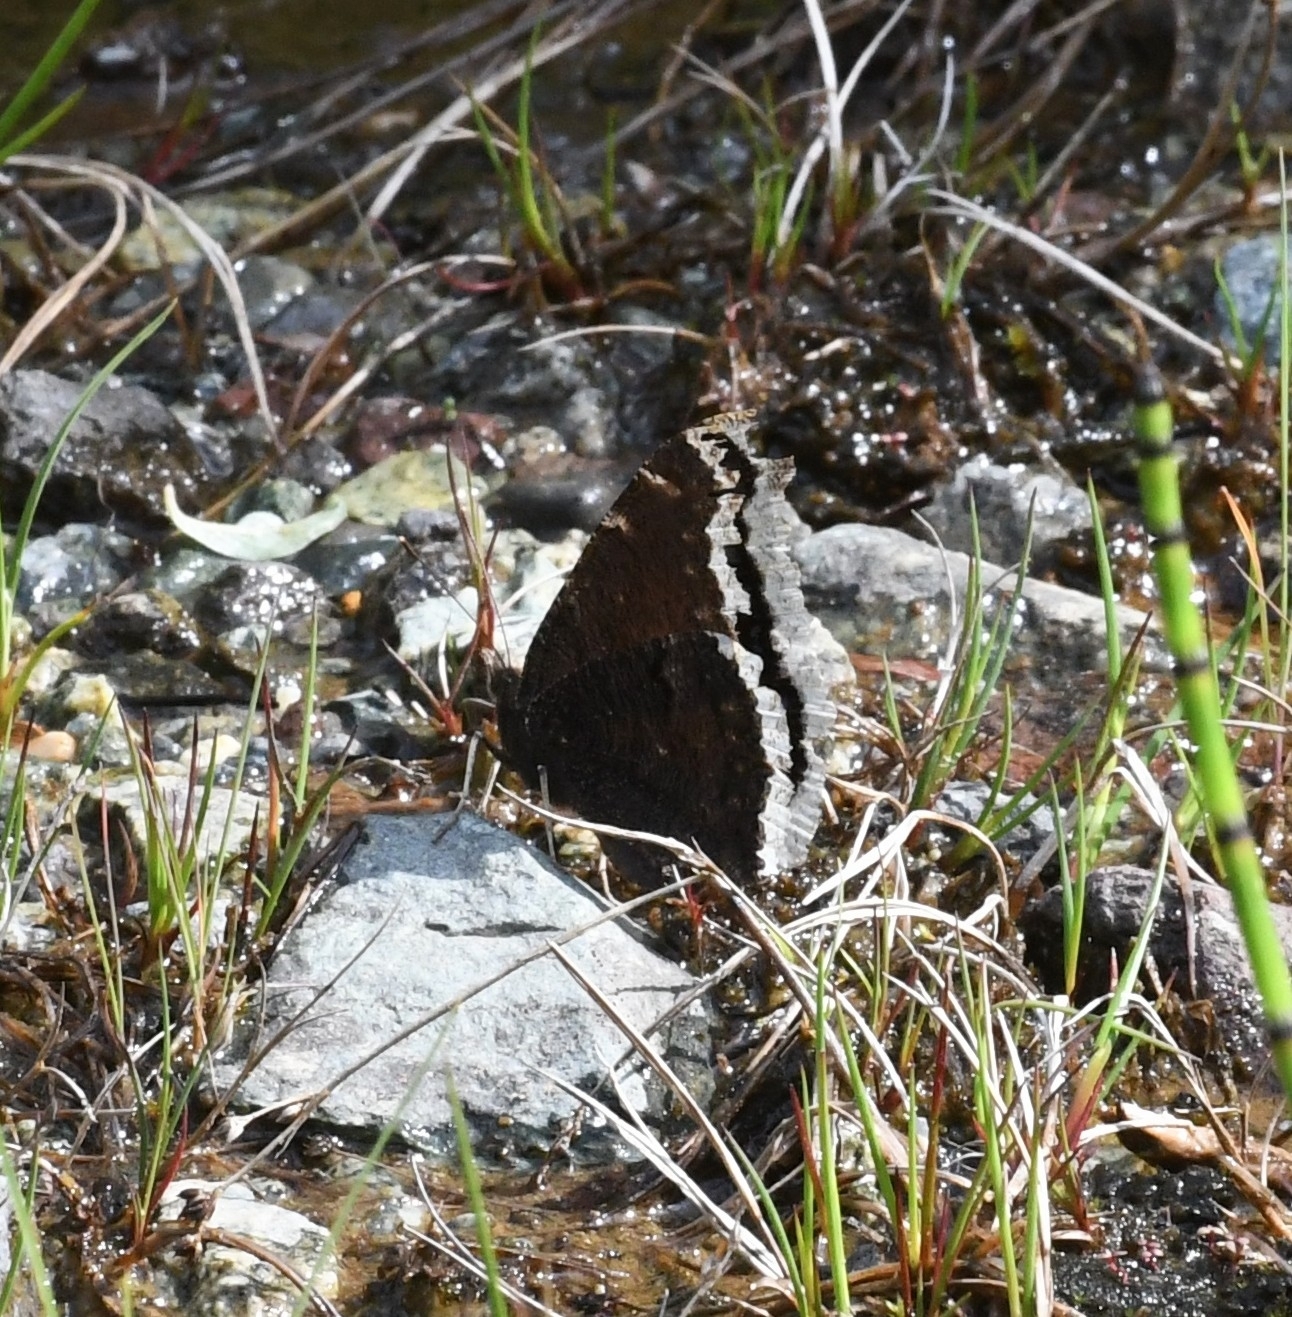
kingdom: Animalia
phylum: Arthropoda
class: Insecta
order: Lepidoptera
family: Nymphalidae
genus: Nymphalis
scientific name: Nymphalis antiopa
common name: Camberwell beauty
